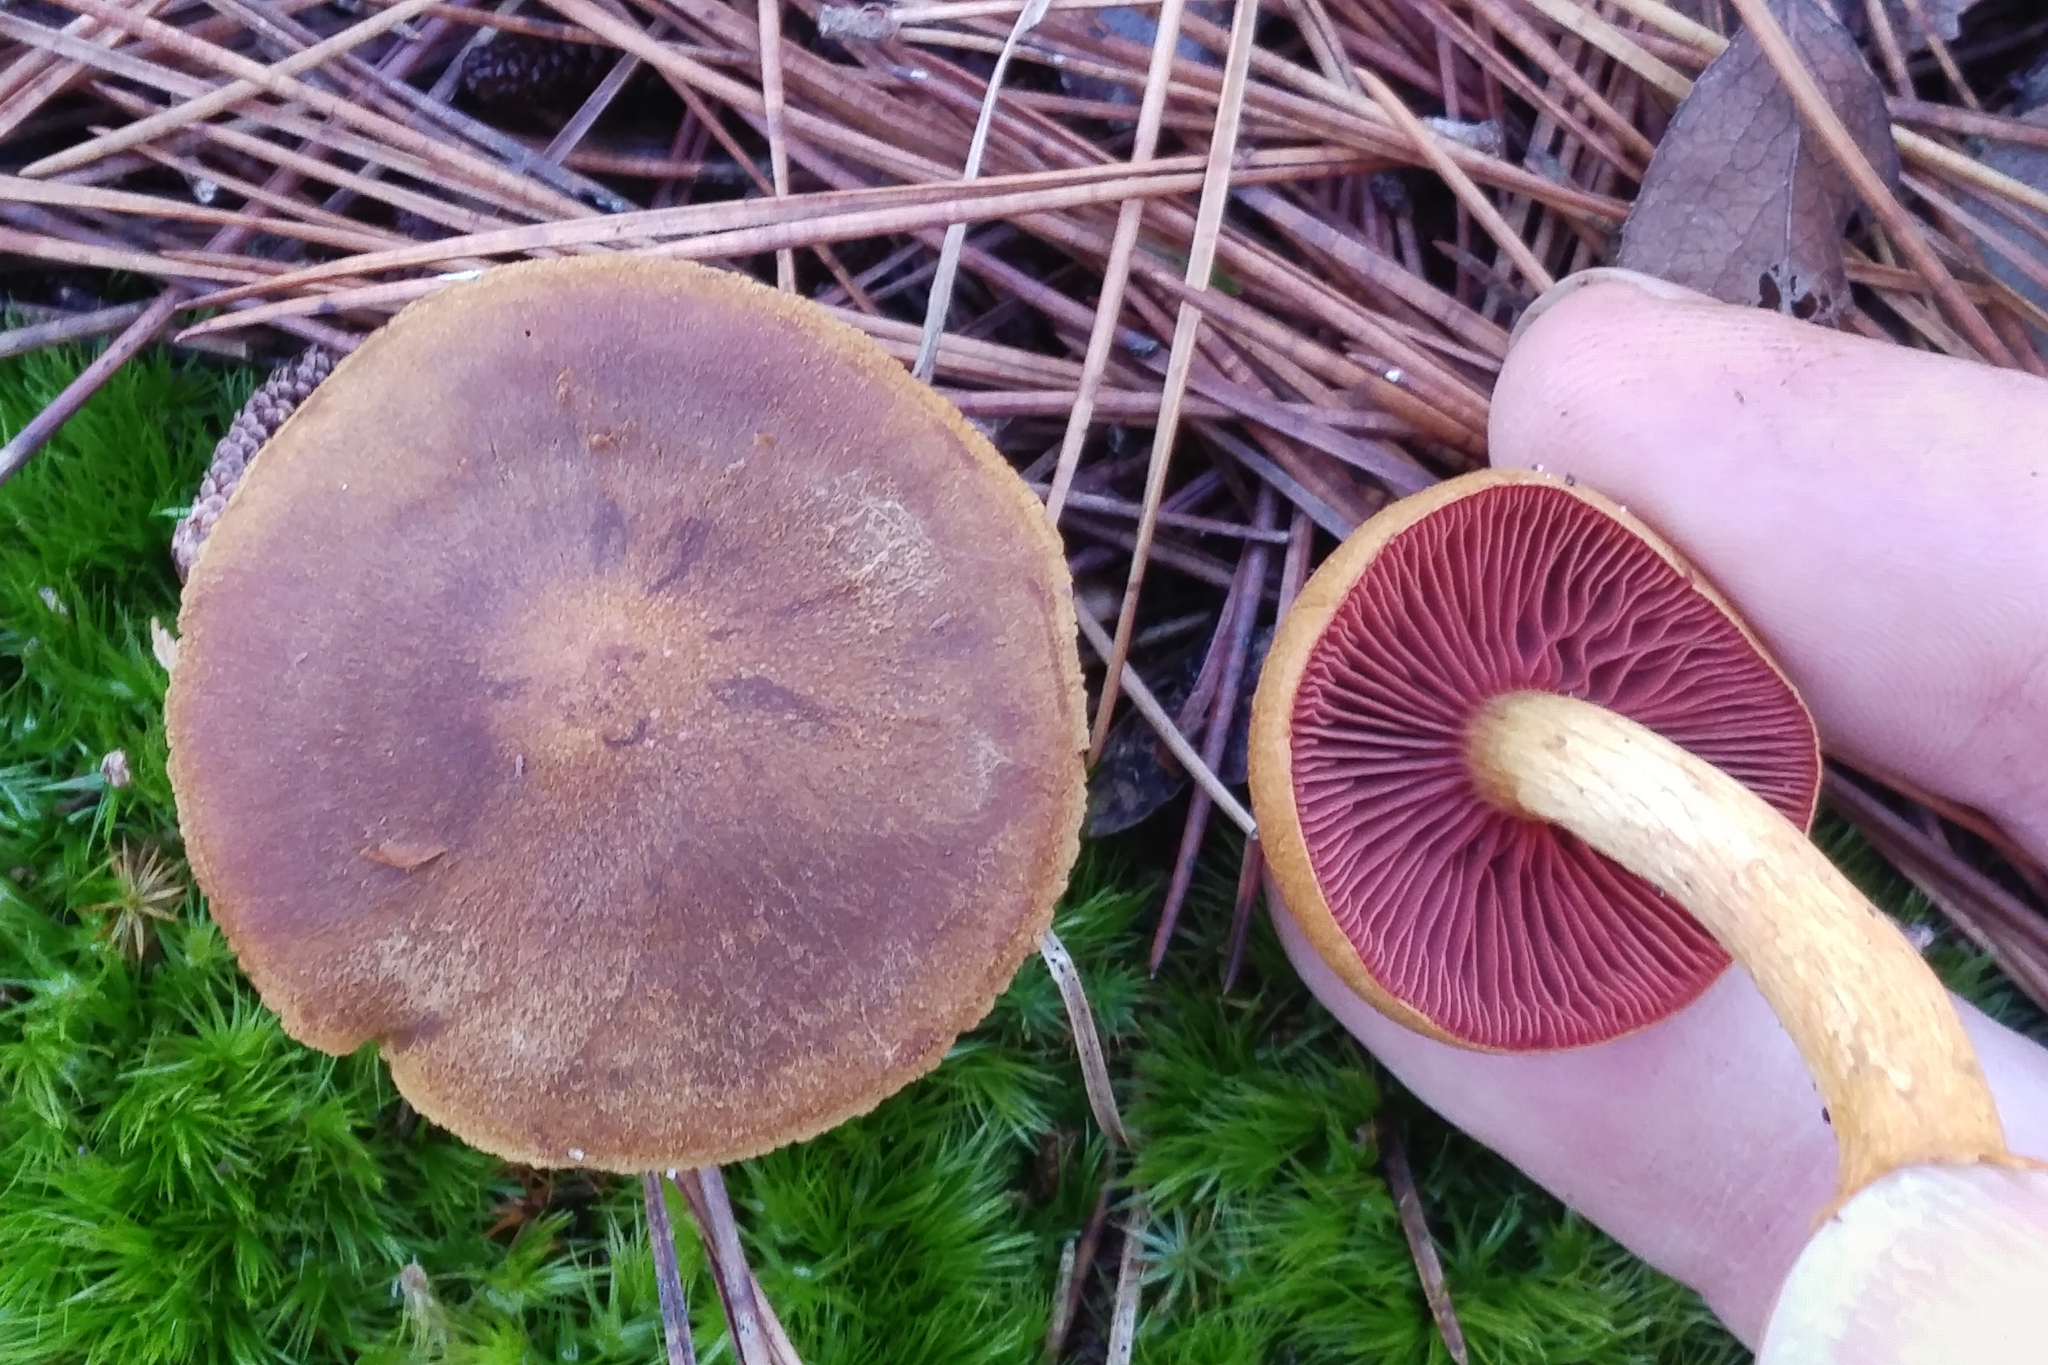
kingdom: Fungi
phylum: Basidiomycota
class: Agaricomycetes
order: Agaricales
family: Cortinariaceae
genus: Cortinarius
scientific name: Cortinarius semisanguineus
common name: Surprise webcap
